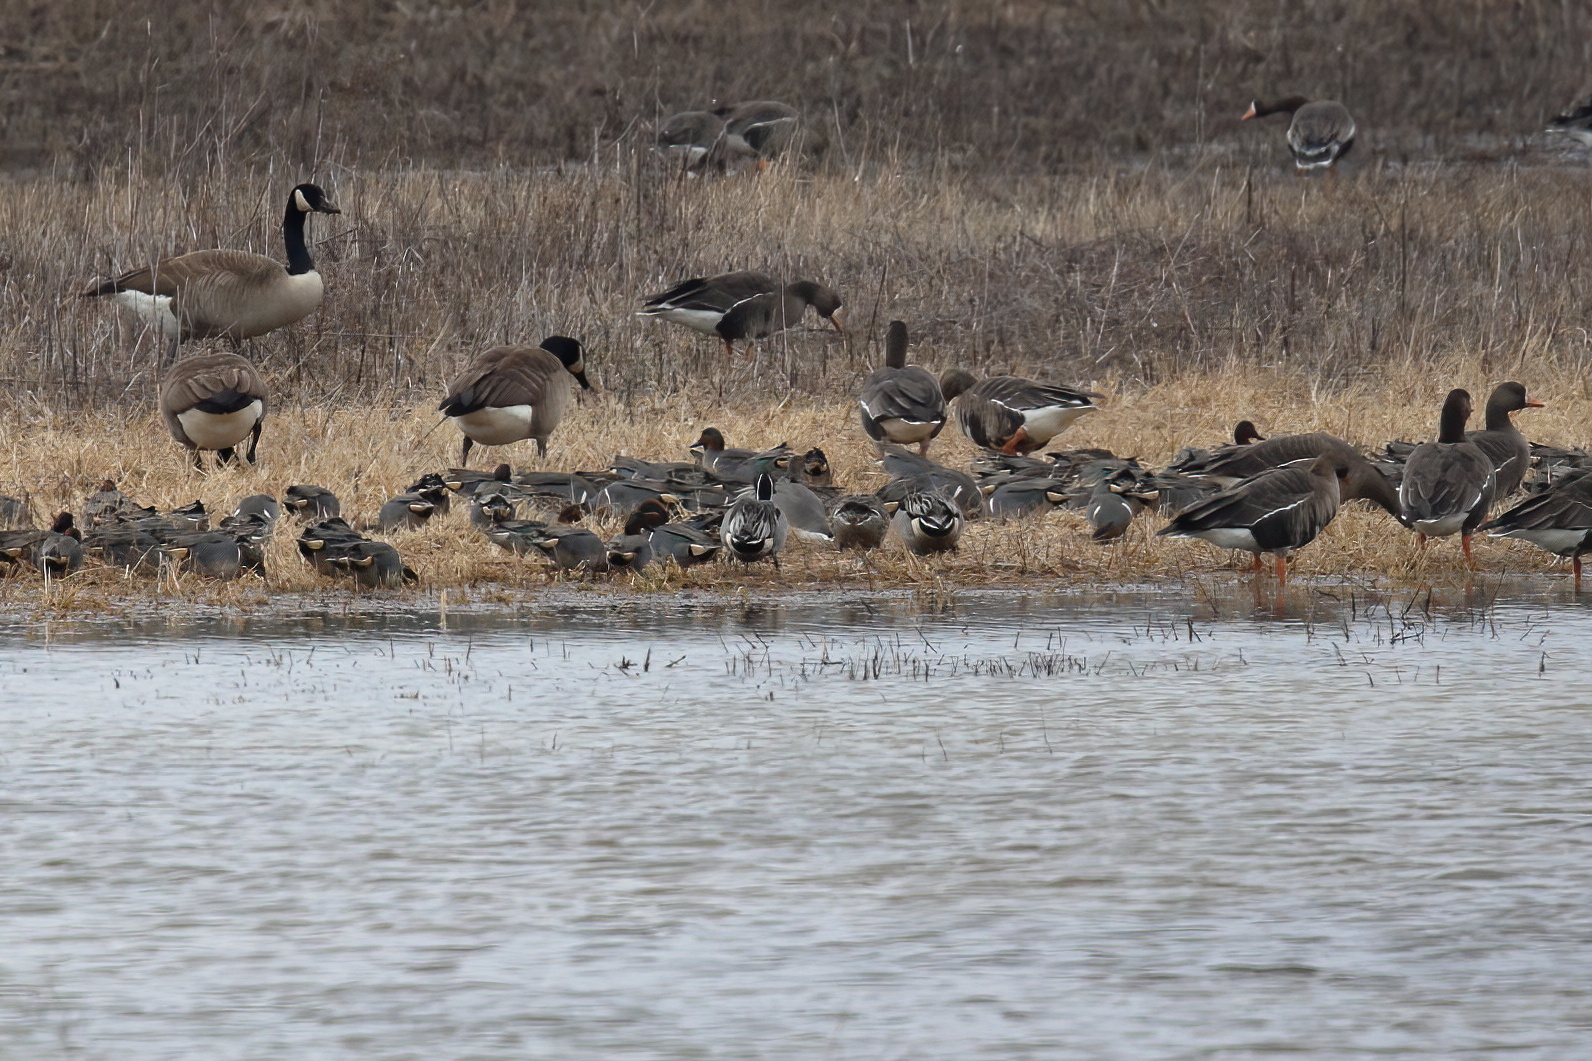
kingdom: Animalia
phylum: Chordata
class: Aves
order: Anseriformes
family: Anatidae
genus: Anas
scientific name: Anas acuta
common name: Northern pintail
